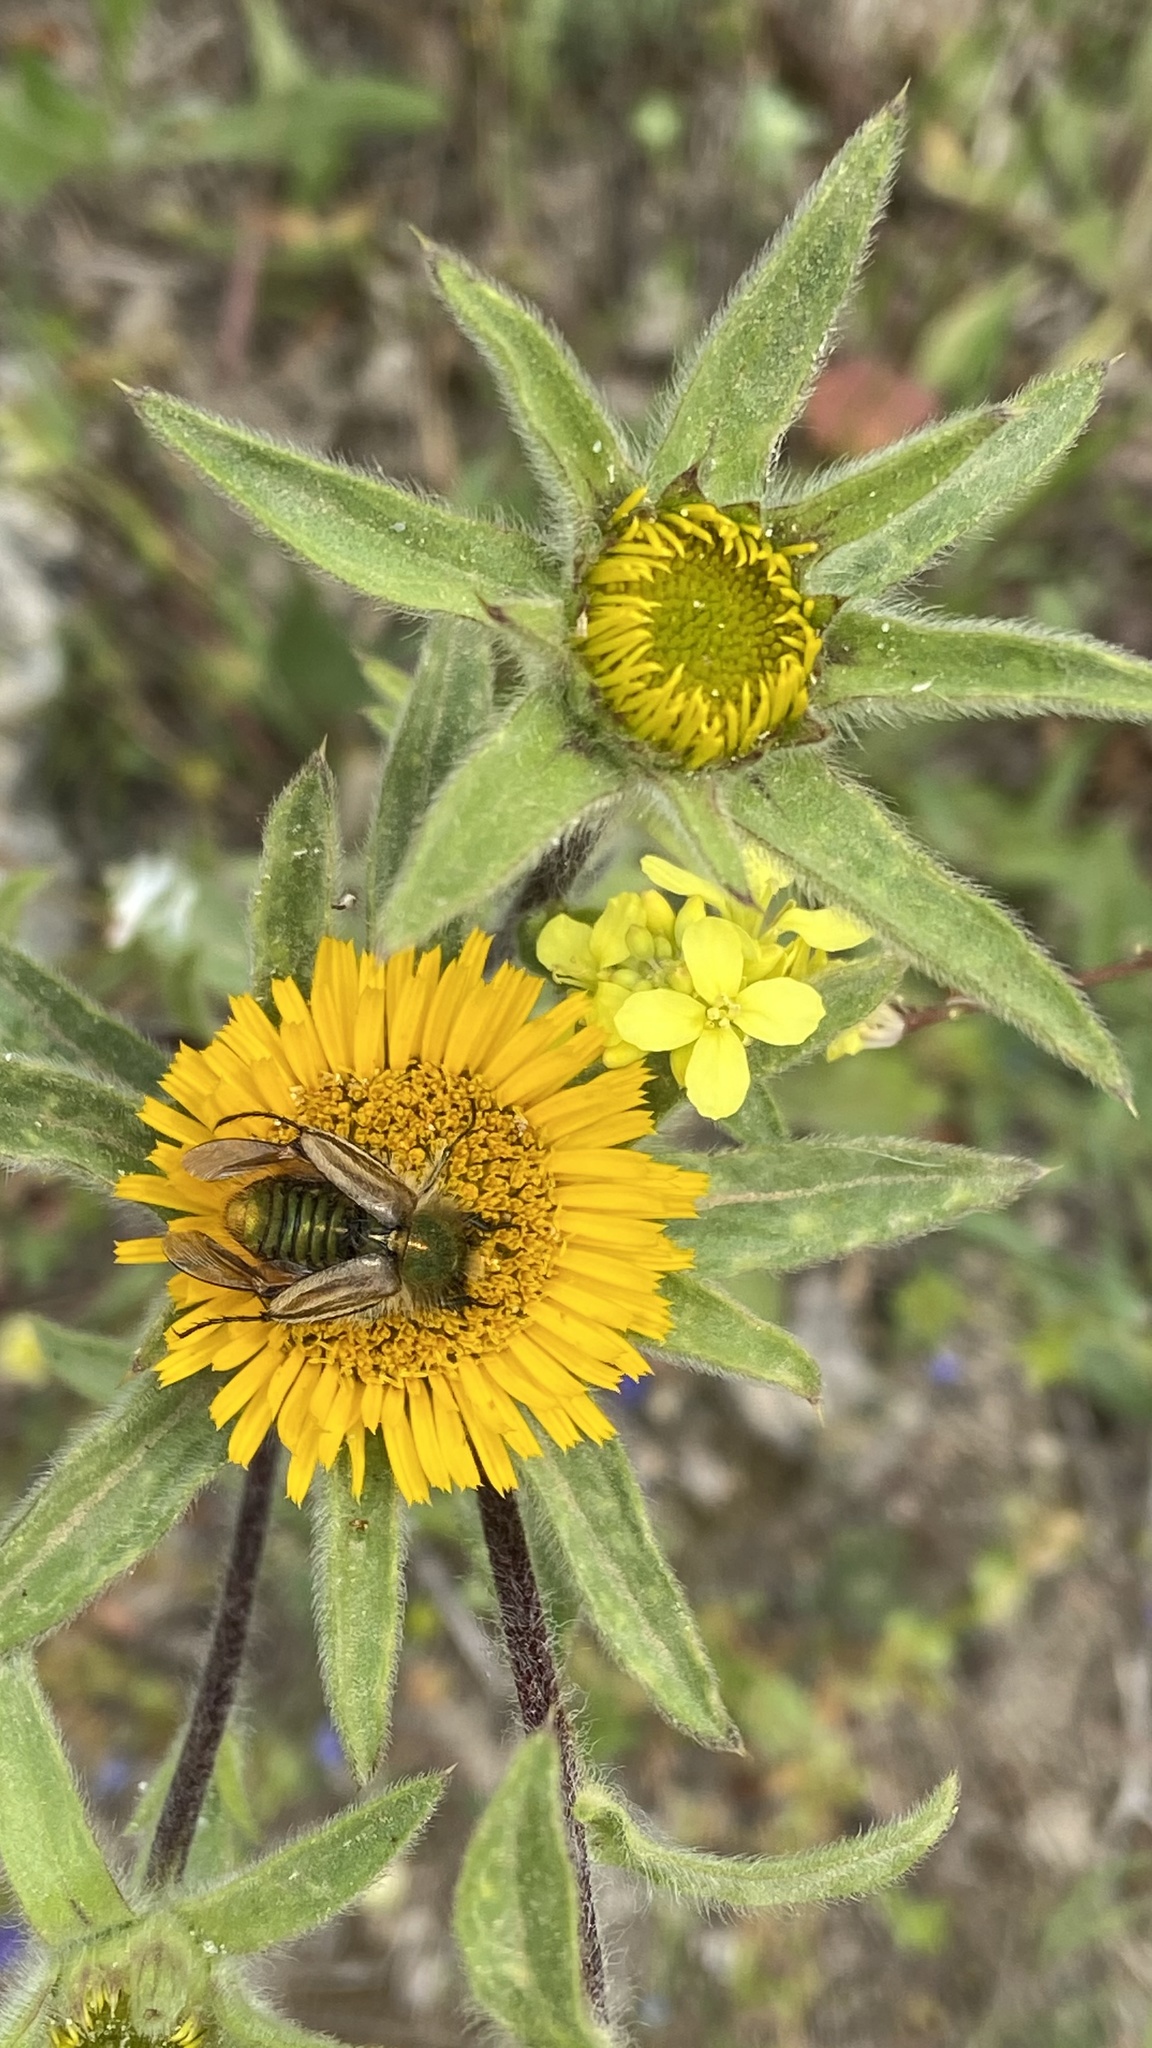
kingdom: Plantae
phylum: Tracheophyta
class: Magnoliopsida
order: Asterales
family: Asteraceae
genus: Pallenis
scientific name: Pallenis spinosa
